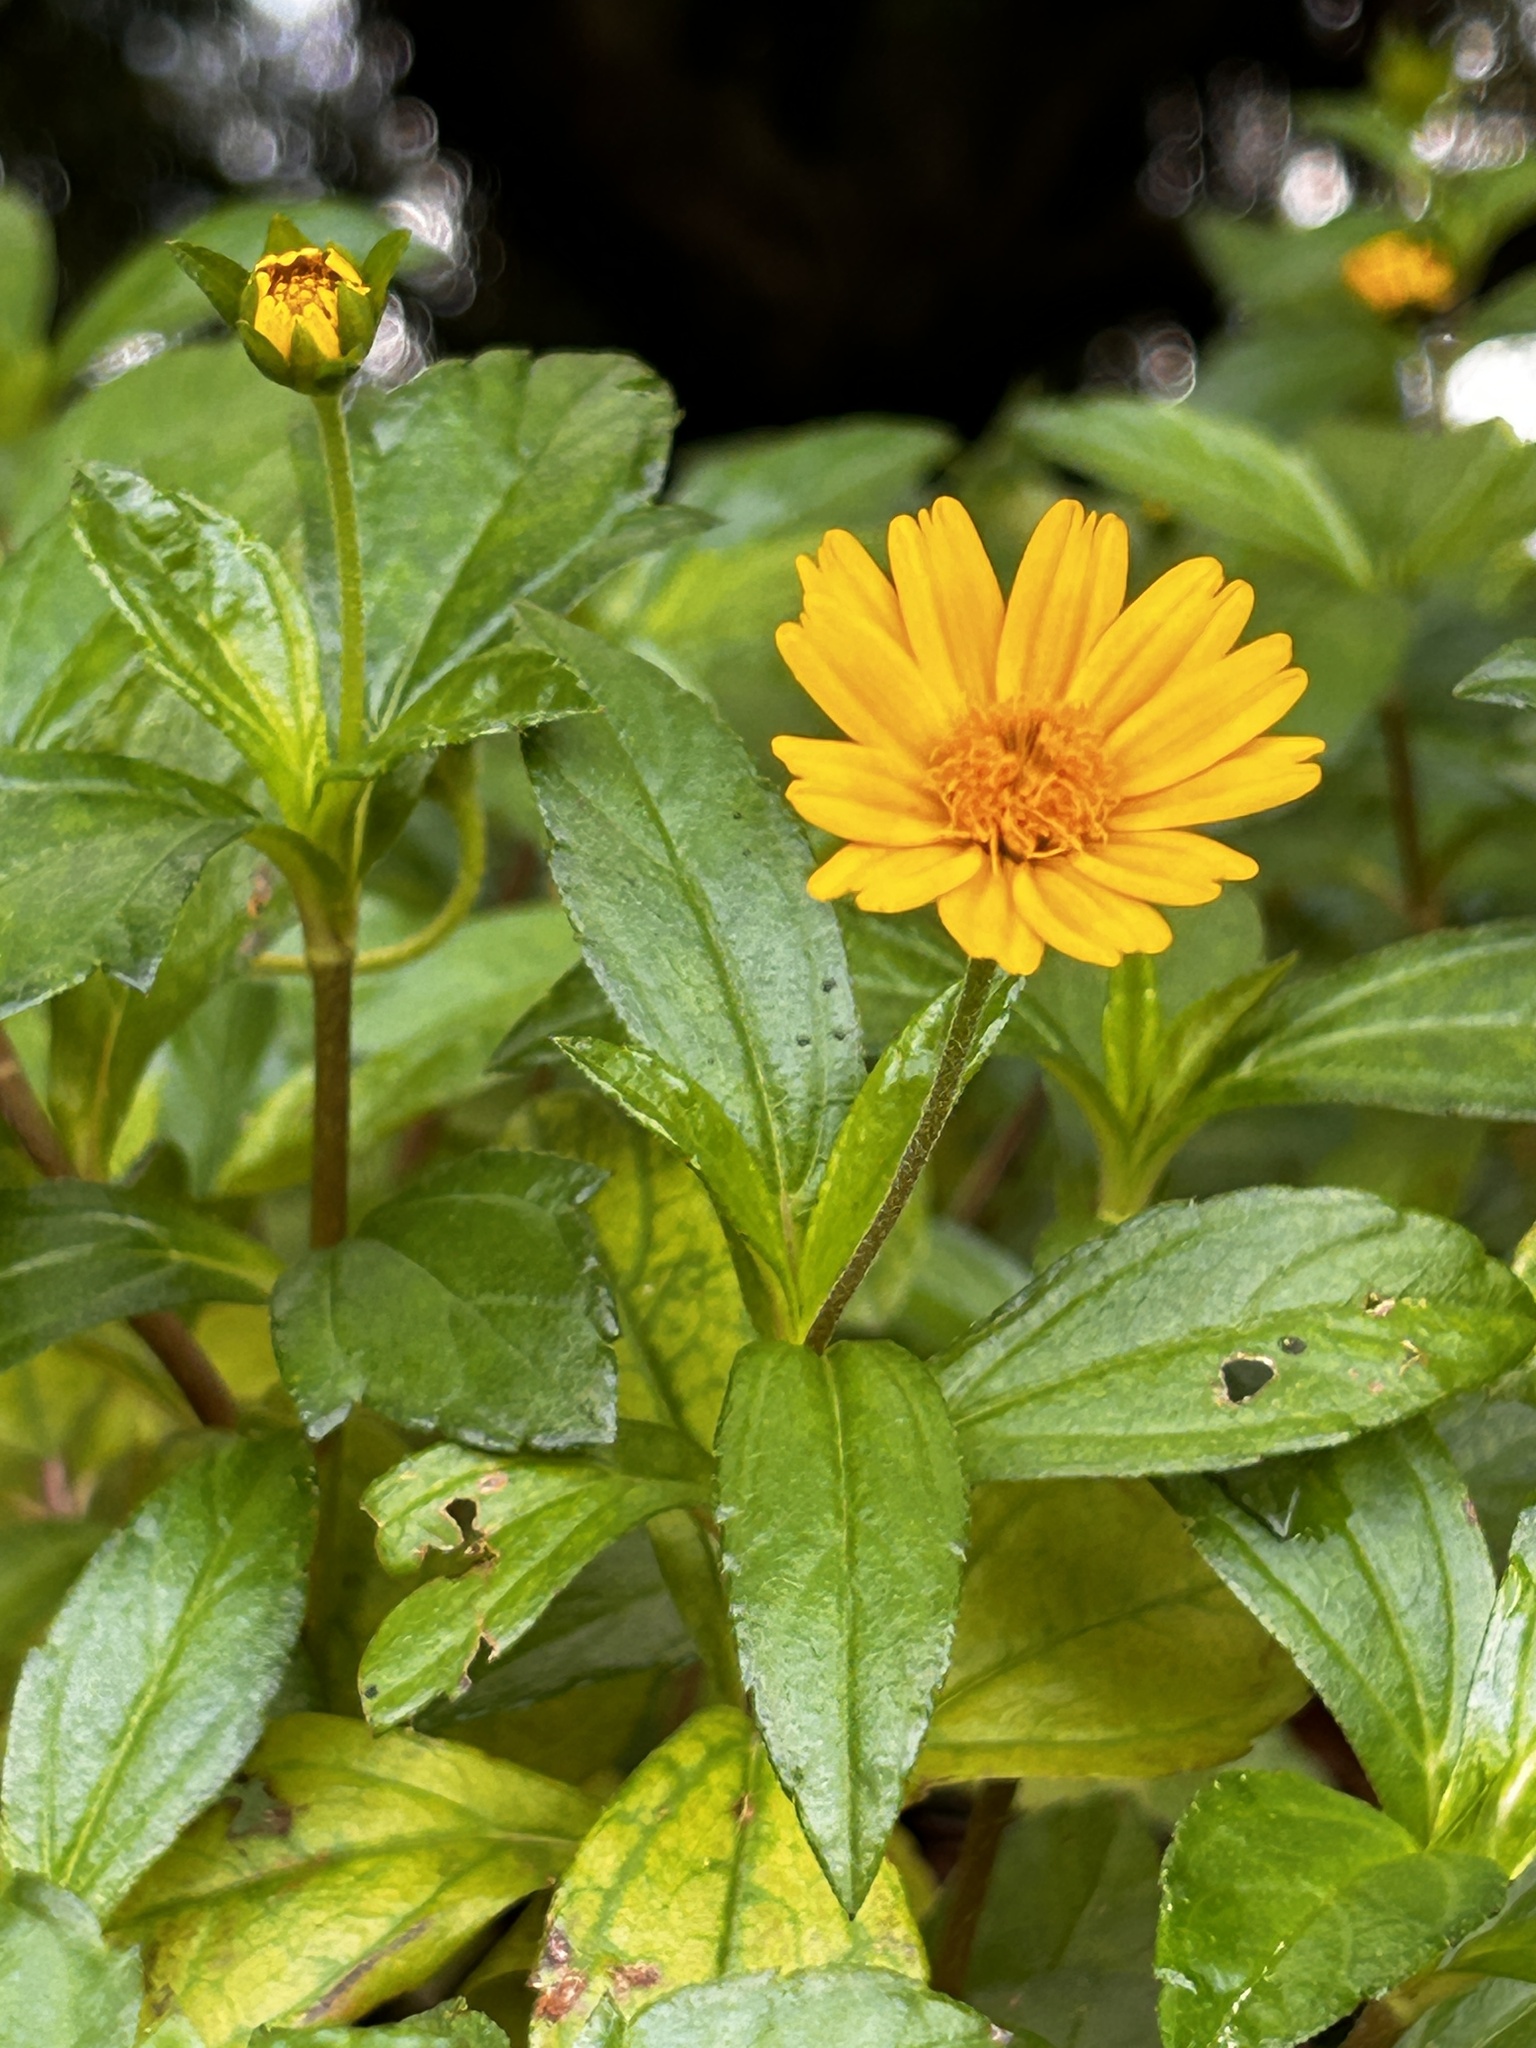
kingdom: Plantae
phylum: Tracheophyta
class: Magnoliopsida
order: Asterales
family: Asteraceae
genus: Sphagneticola
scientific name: Sphagneticola trilobata
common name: Bay biscayne creeping-oxeye
